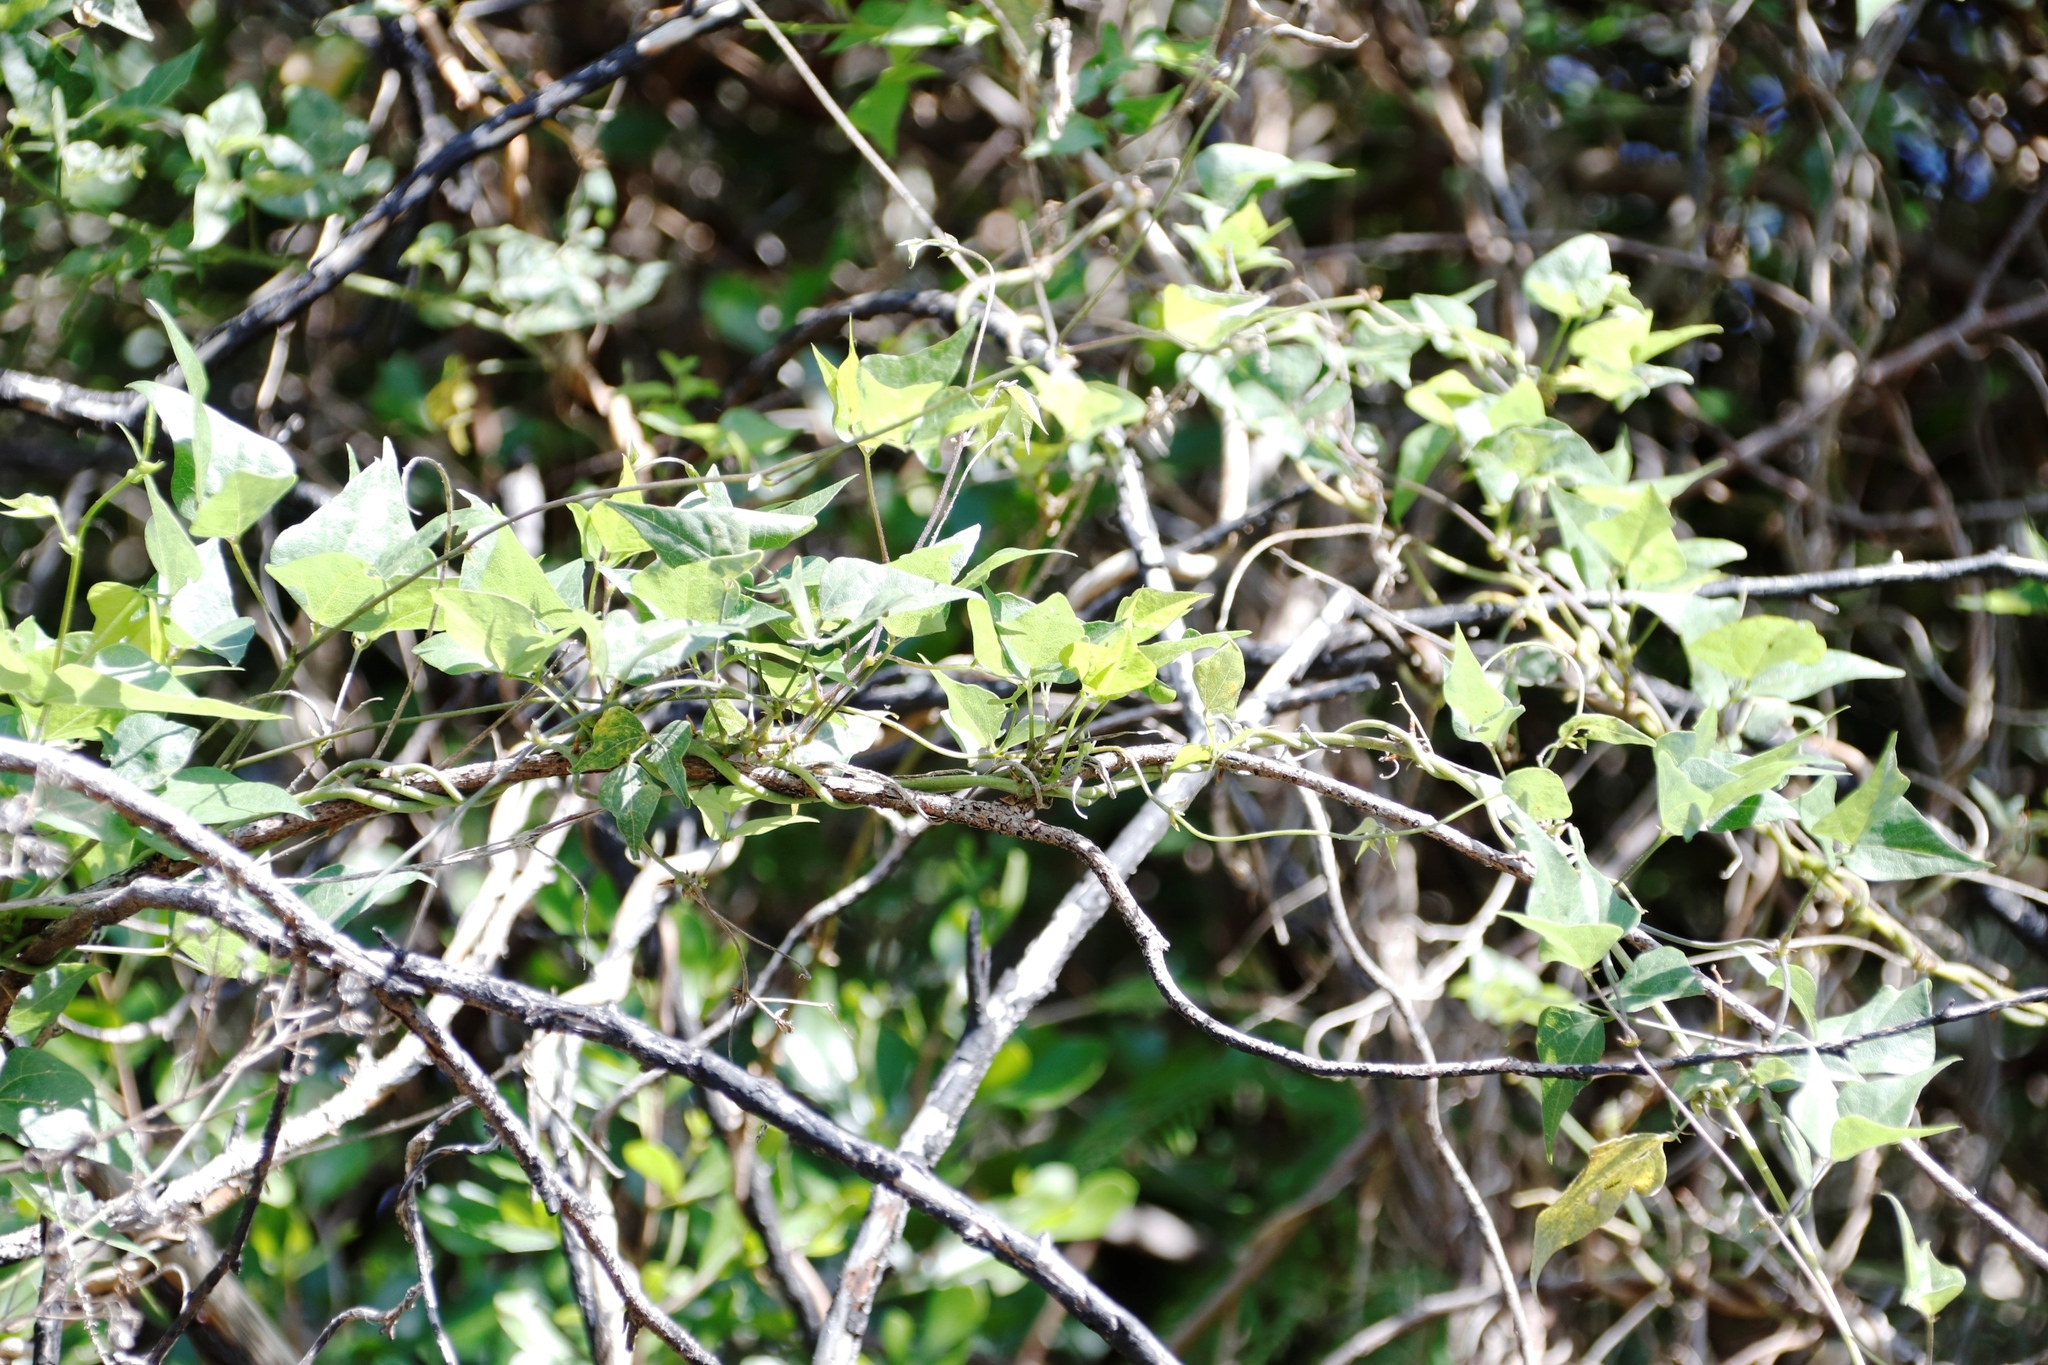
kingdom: Plantae
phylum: Tracheophyta
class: Magnoliopsida
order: Fabales
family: Fabaceae
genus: Dipogon
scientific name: Dipogon lignosus
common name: Okie bean
